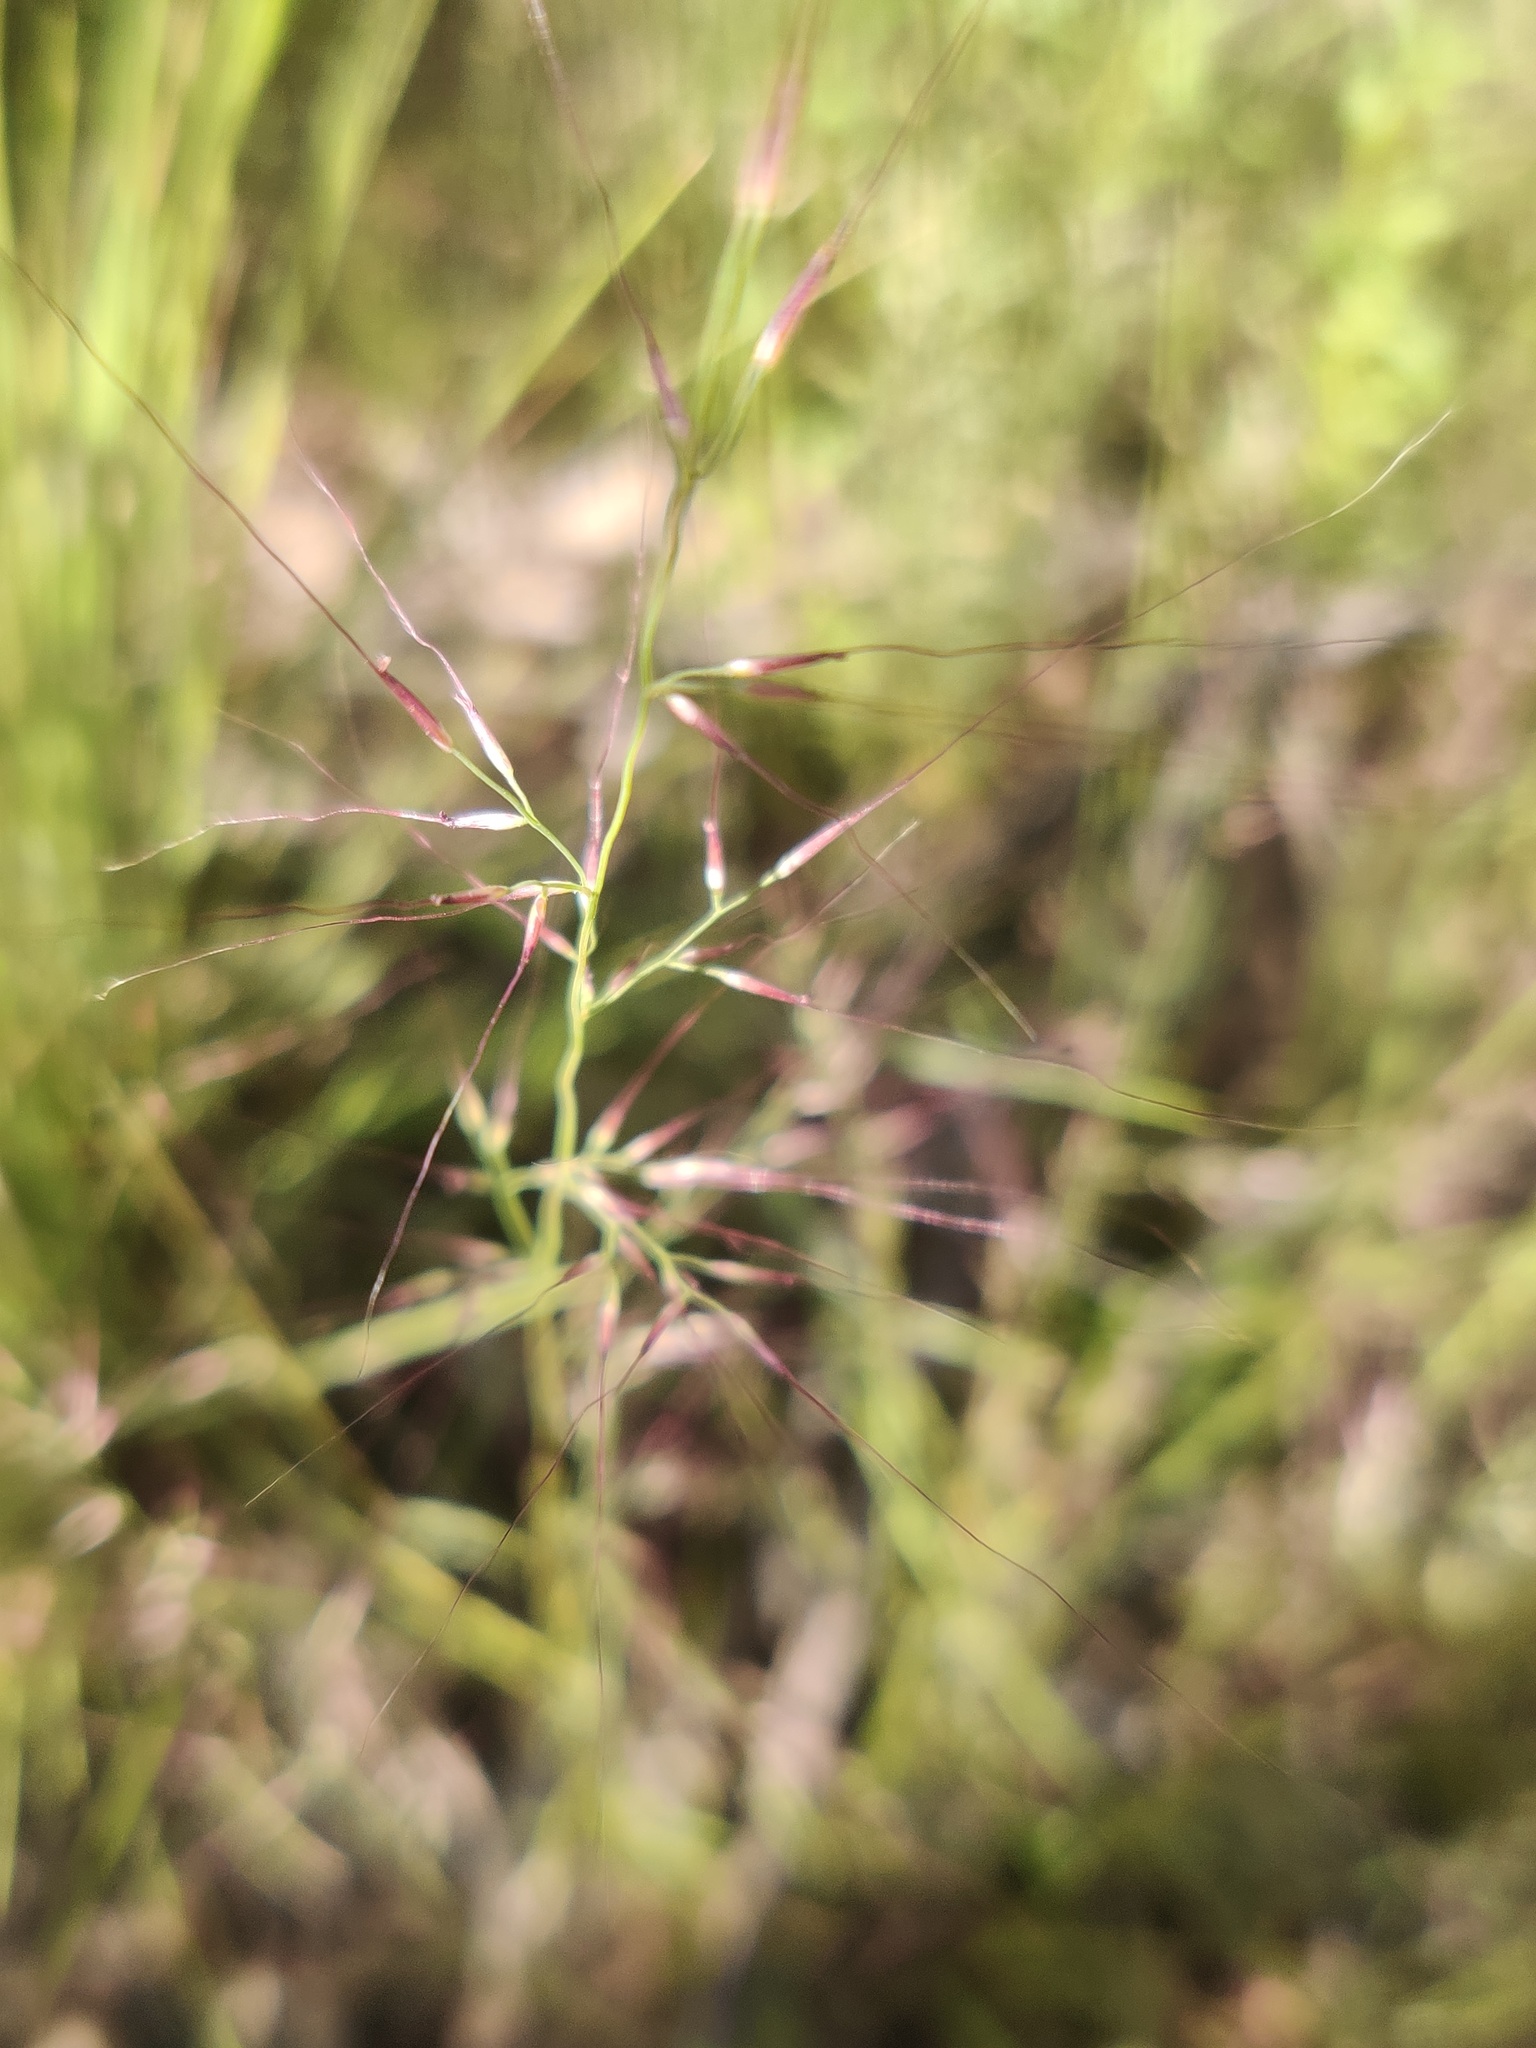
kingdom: Plantae
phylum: Tracheophyta
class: Liliopsida
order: Poales
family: Poaceae
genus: Muhlenbergia
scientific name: Muhlenbergia microsperma
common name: Littleseed muhly
